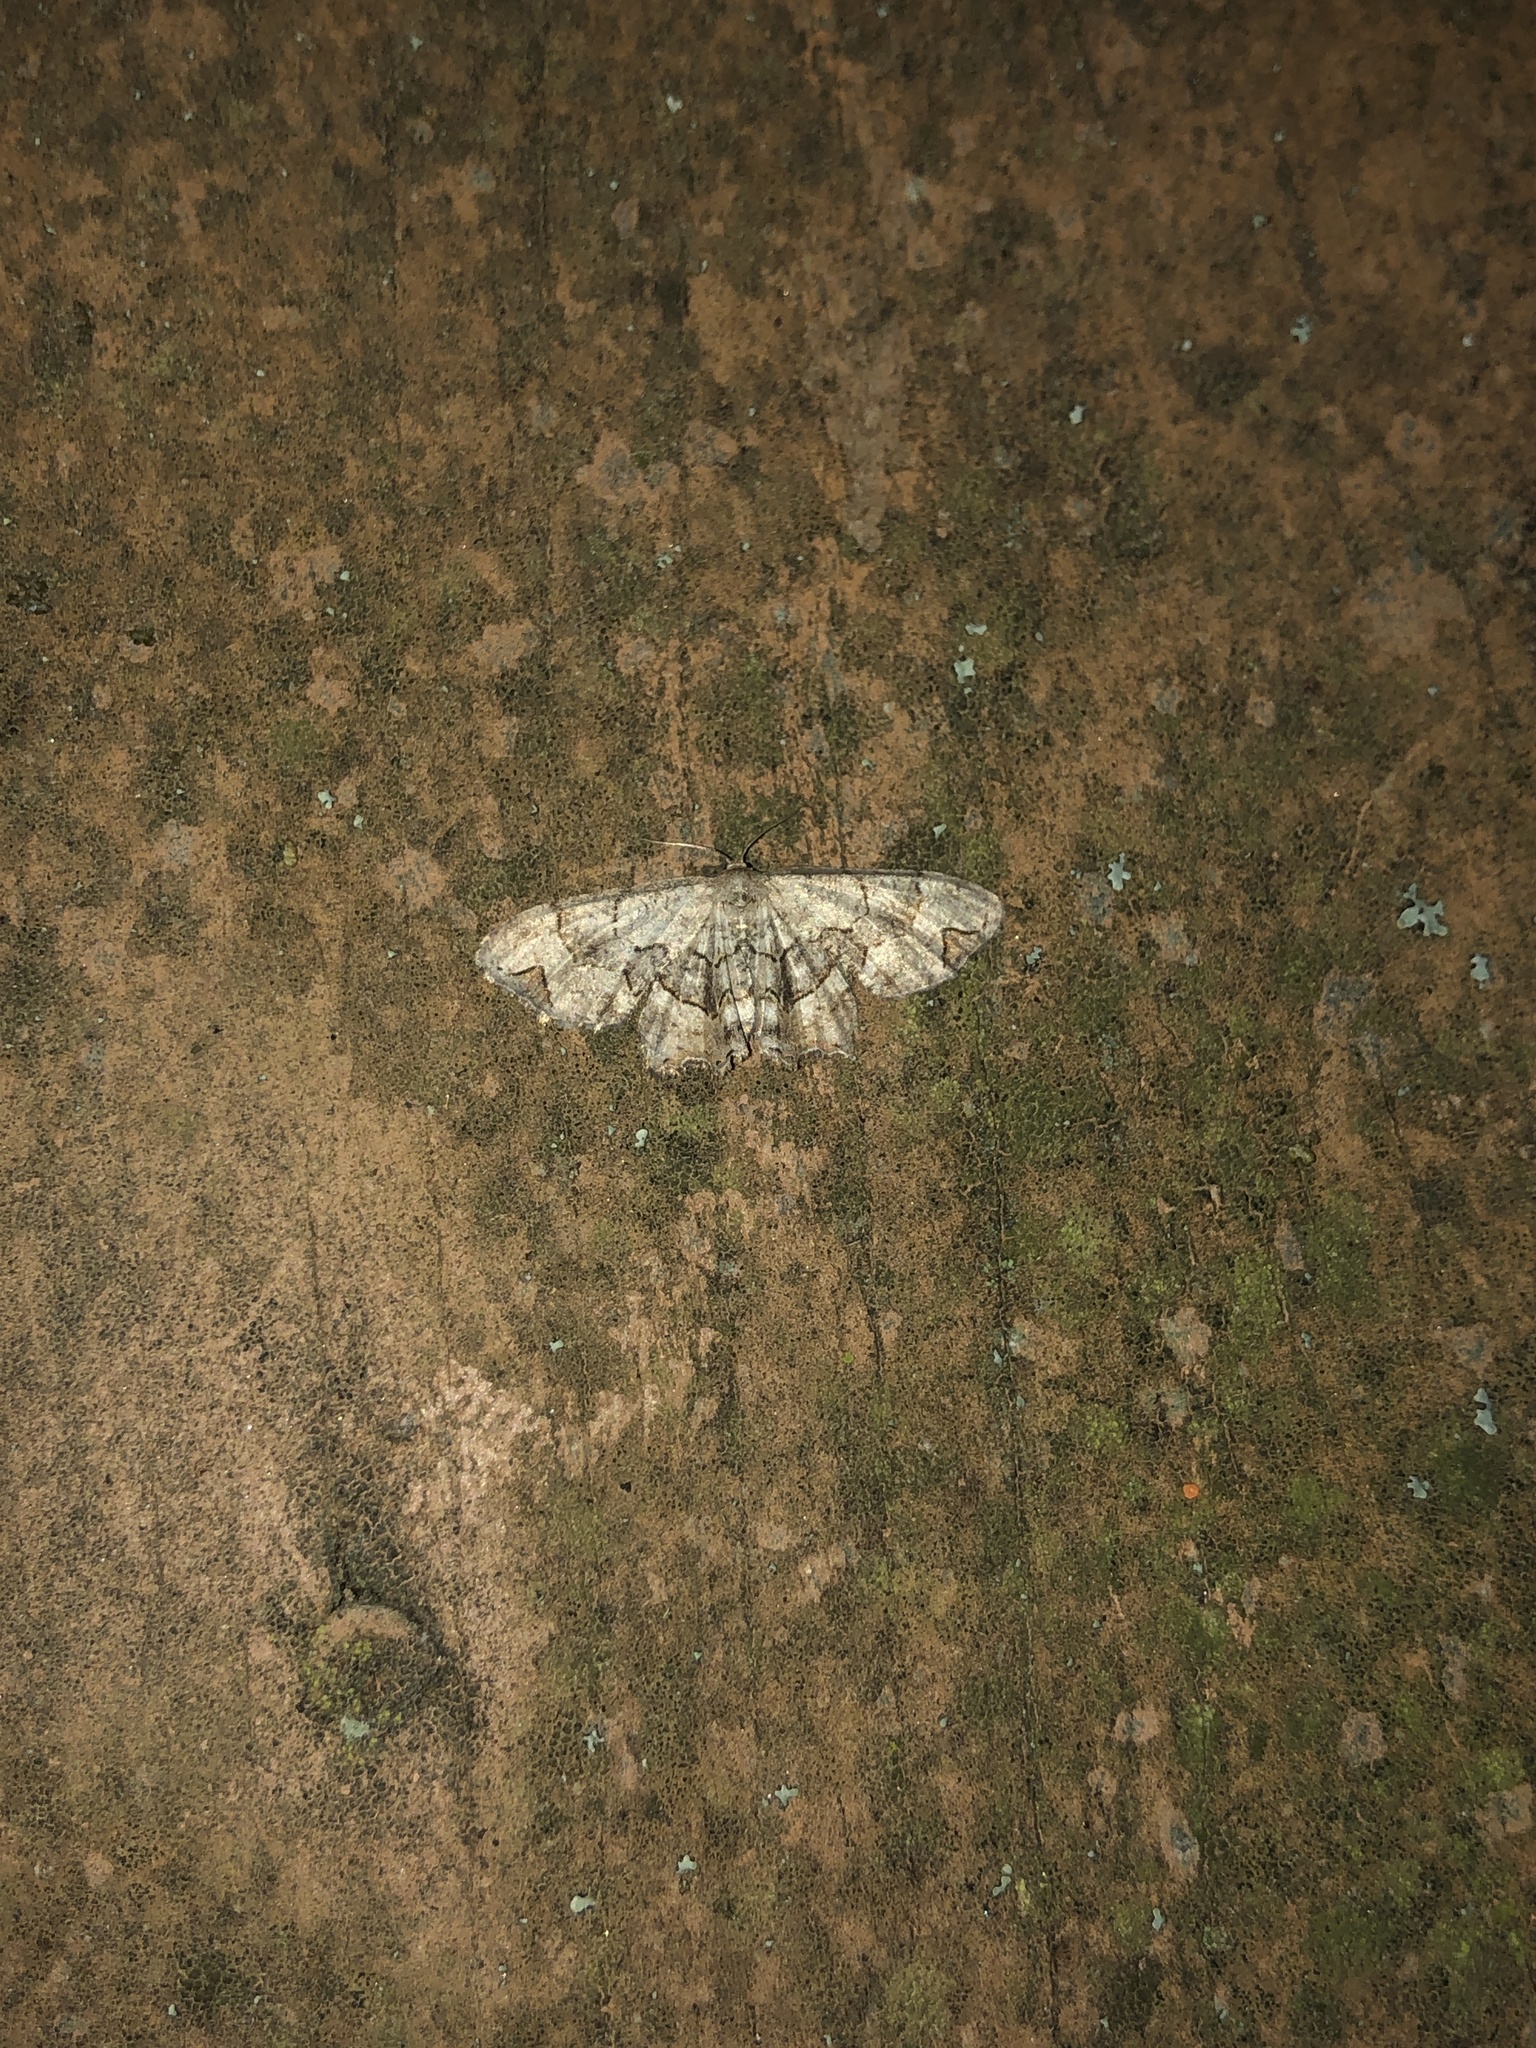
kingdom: Animalia
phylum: Arthropoda
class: Insecta
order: Lepidoptera
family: Uraniidae
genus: Epiplema
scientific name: Epiplema Callizzia amorata
